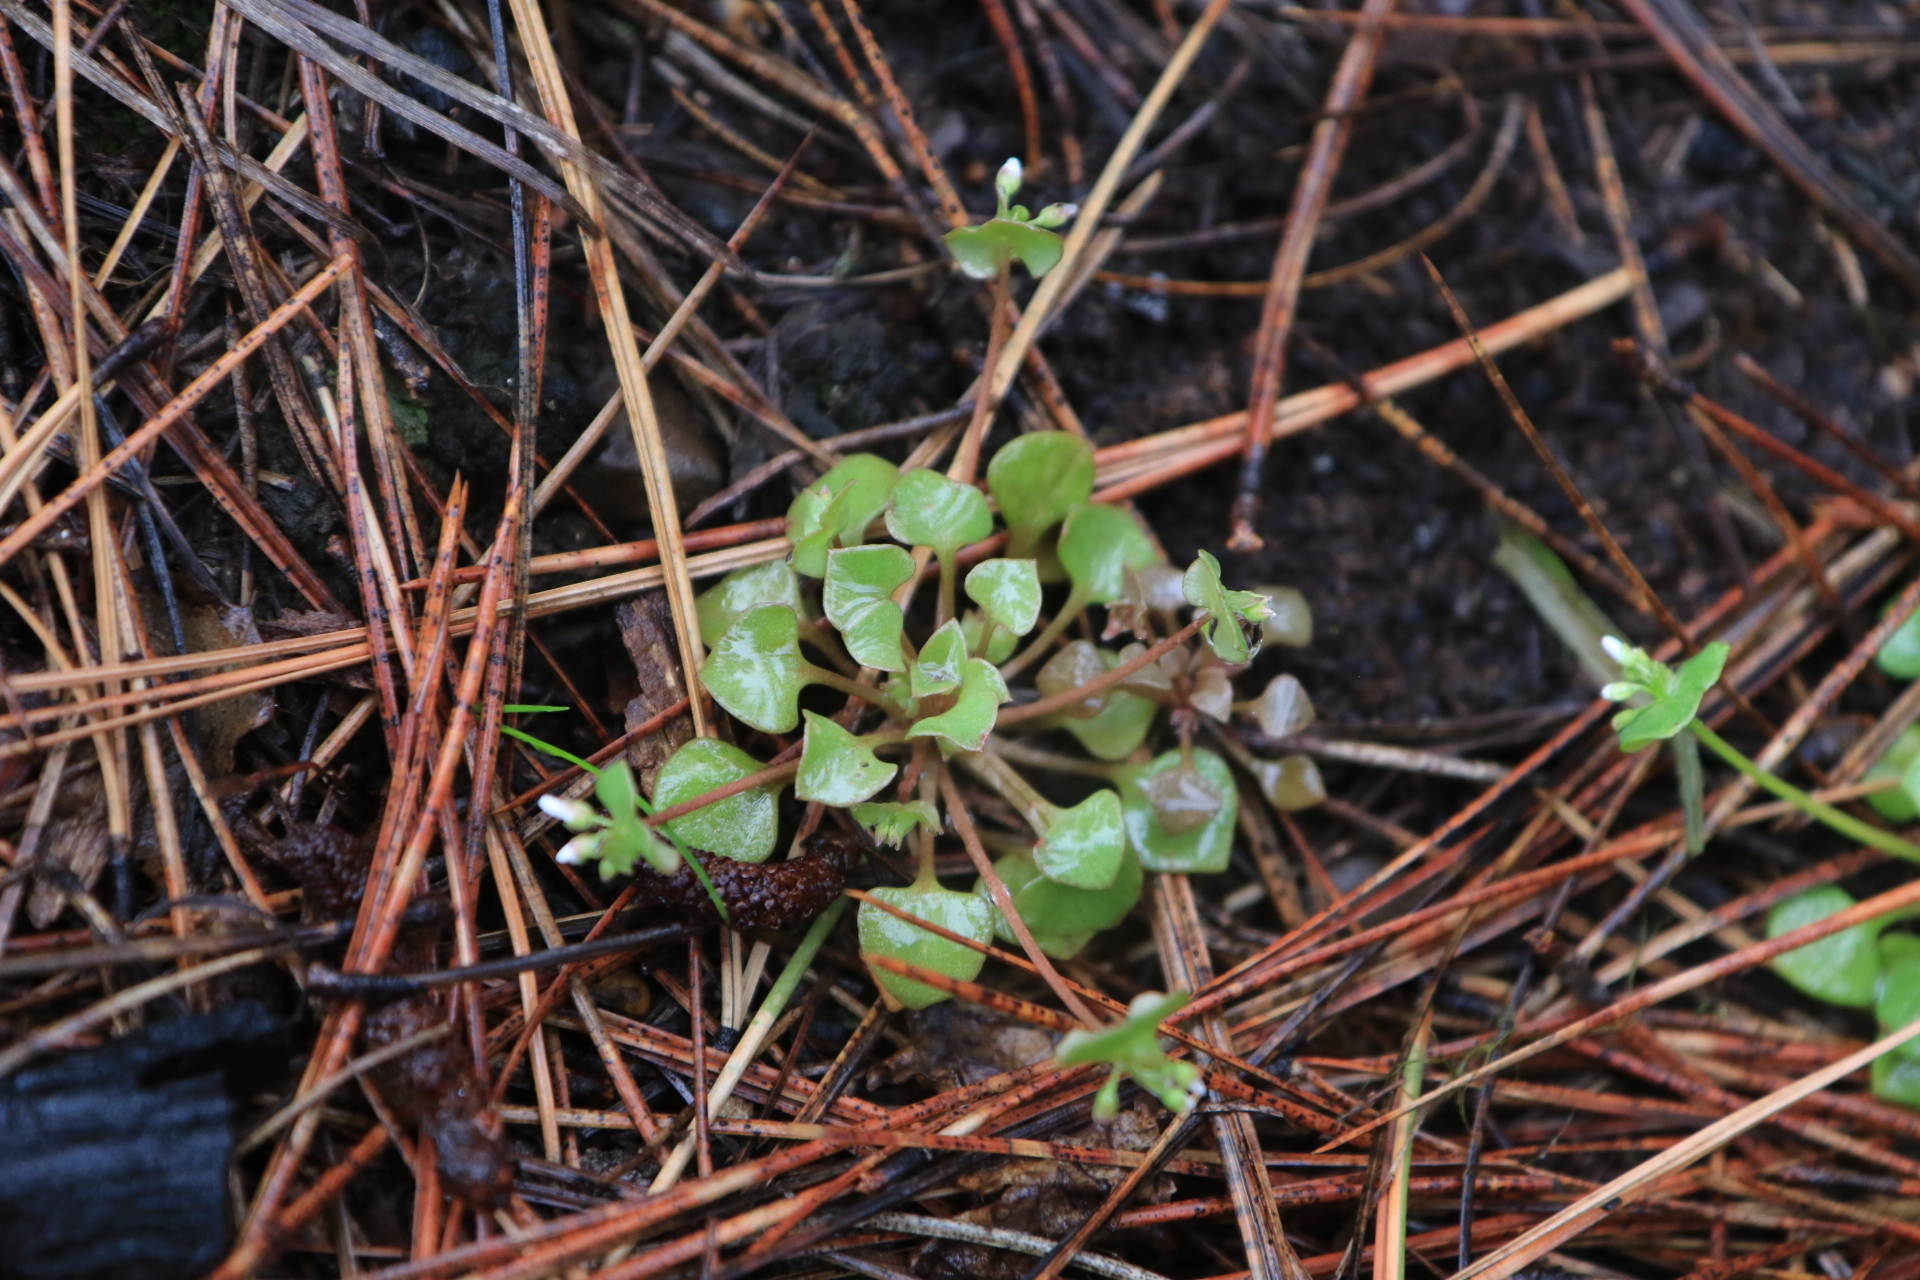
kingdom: Plantae
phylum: Tracheophyta
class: Magnoliopsida
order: Caryophyllales
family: Montiaceae
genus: Claytonia
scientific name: Claytonia rubra
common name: Erubescent miner's-lettuce
